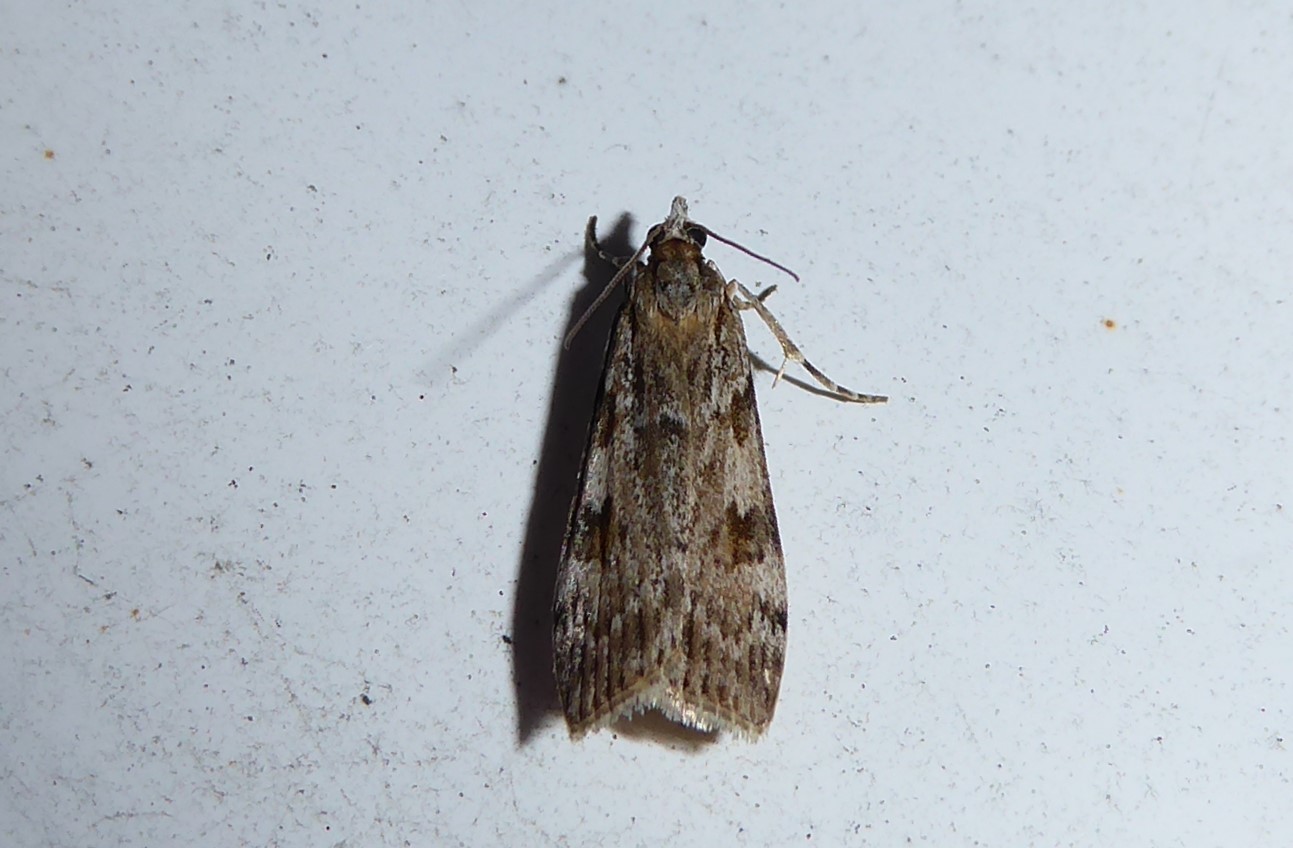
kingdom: Animalia
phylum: Arthropoda
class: Insecta
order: Lepidoptera
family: Crambidae
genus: Scoparia
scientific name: Scoparia halopis
